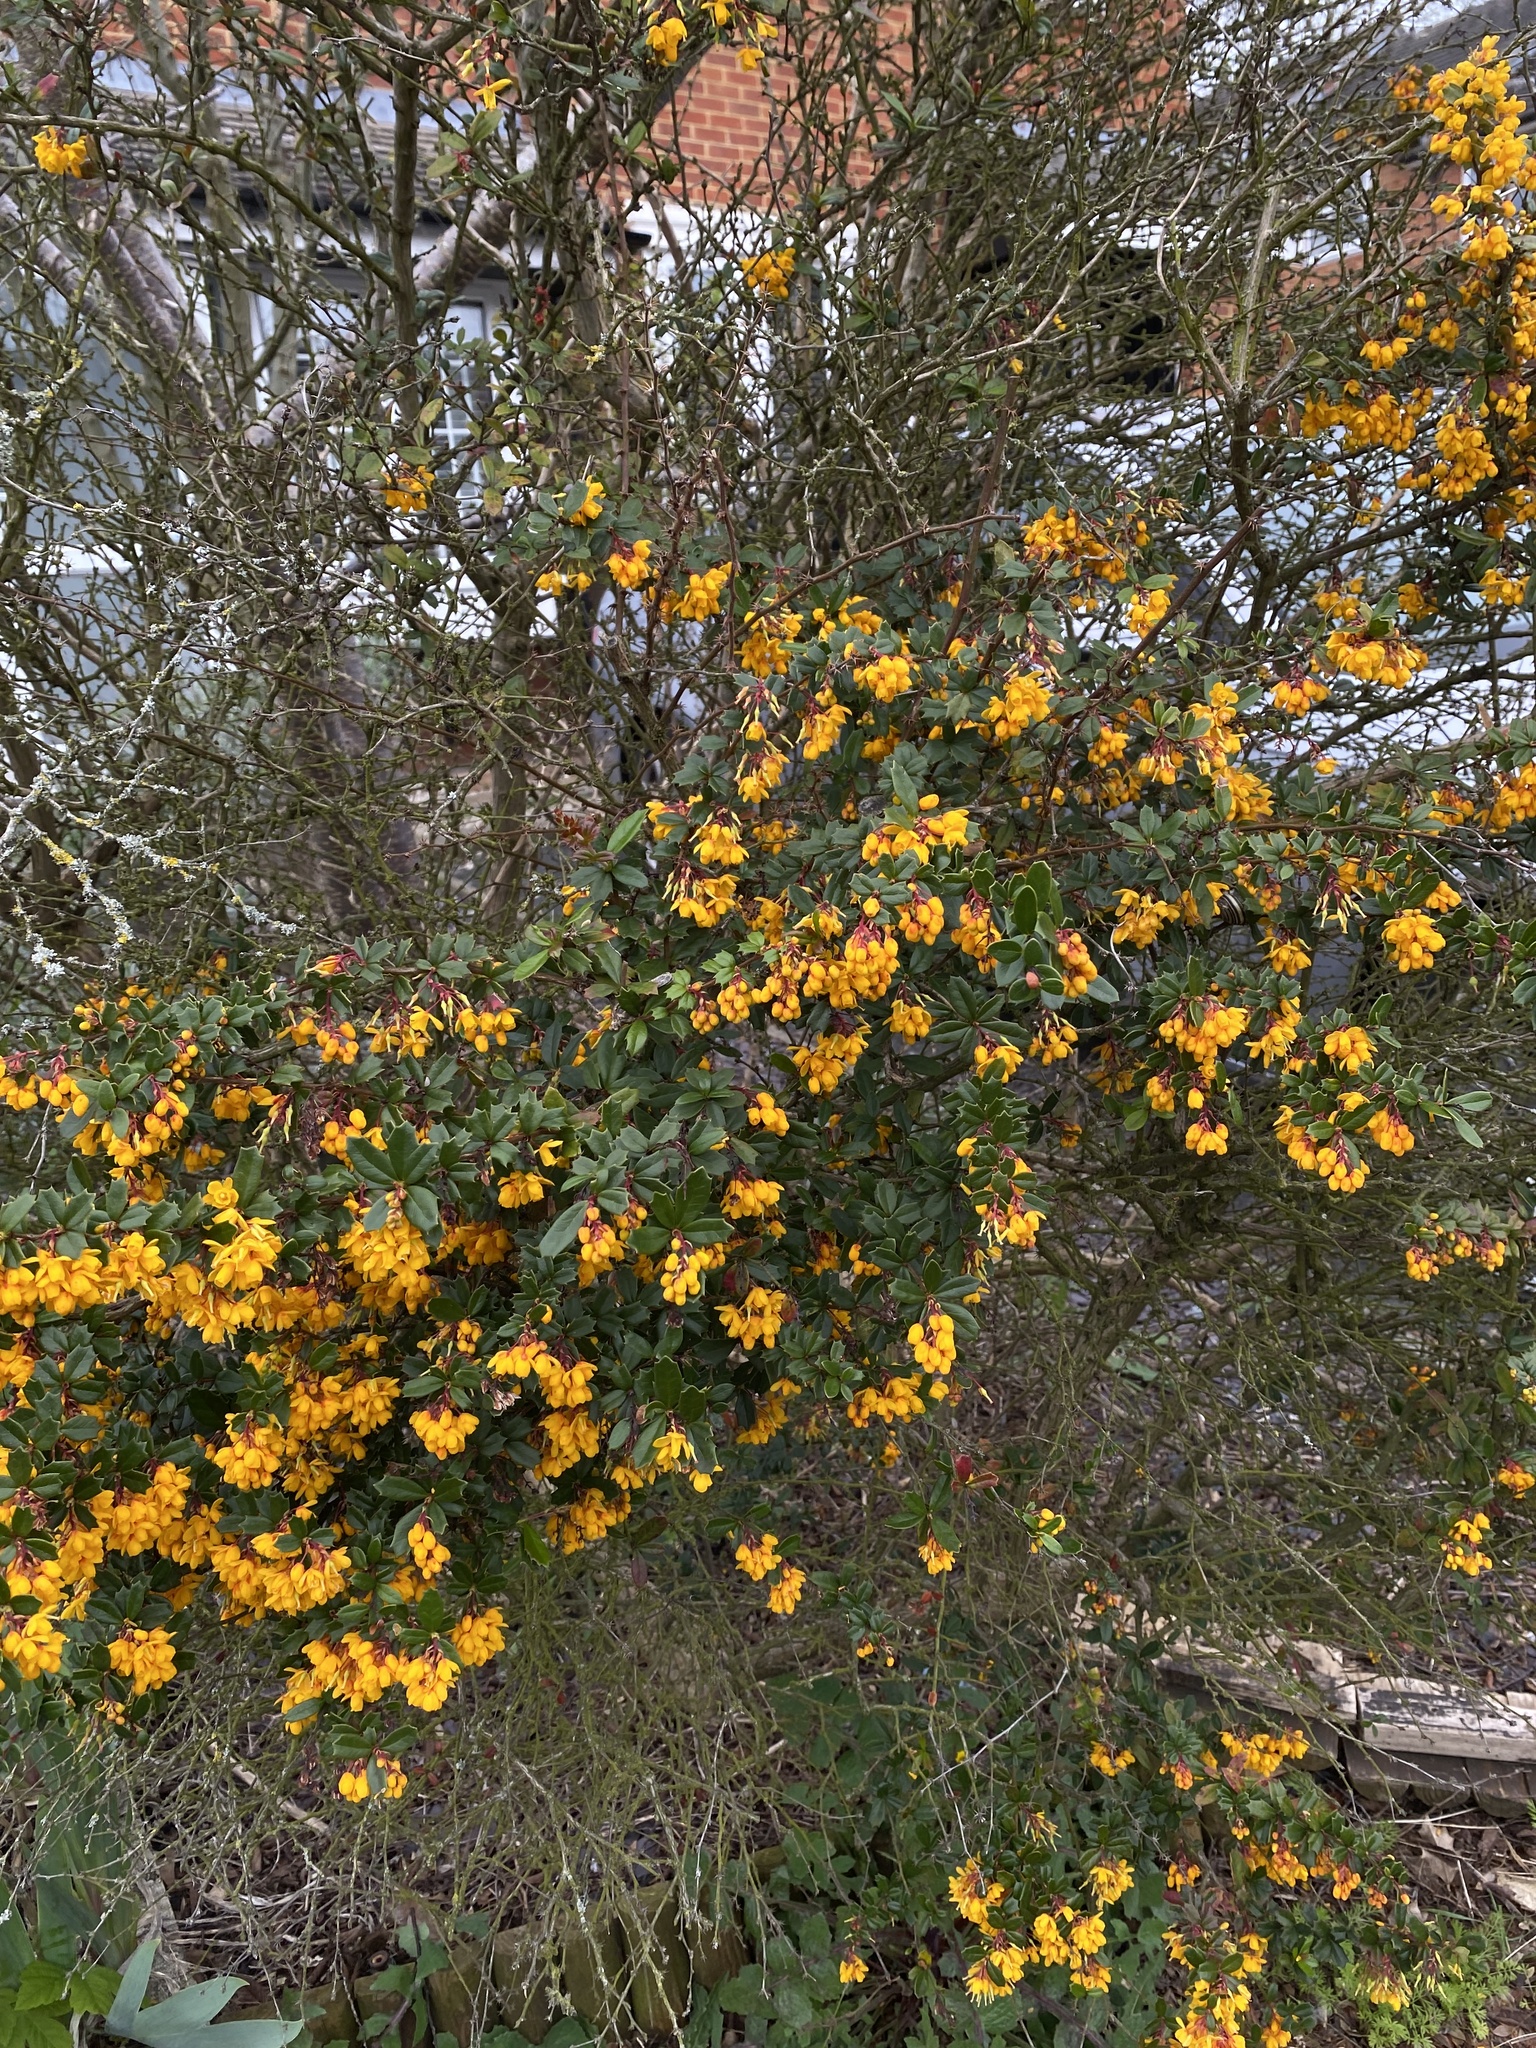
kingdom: Plantae
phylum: Tracheophyta
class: Magnoliopsida
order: Ranunculales
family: Berberidaceae
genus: Berberis
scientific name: Berberis darwinii
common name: Darwin's barberry
